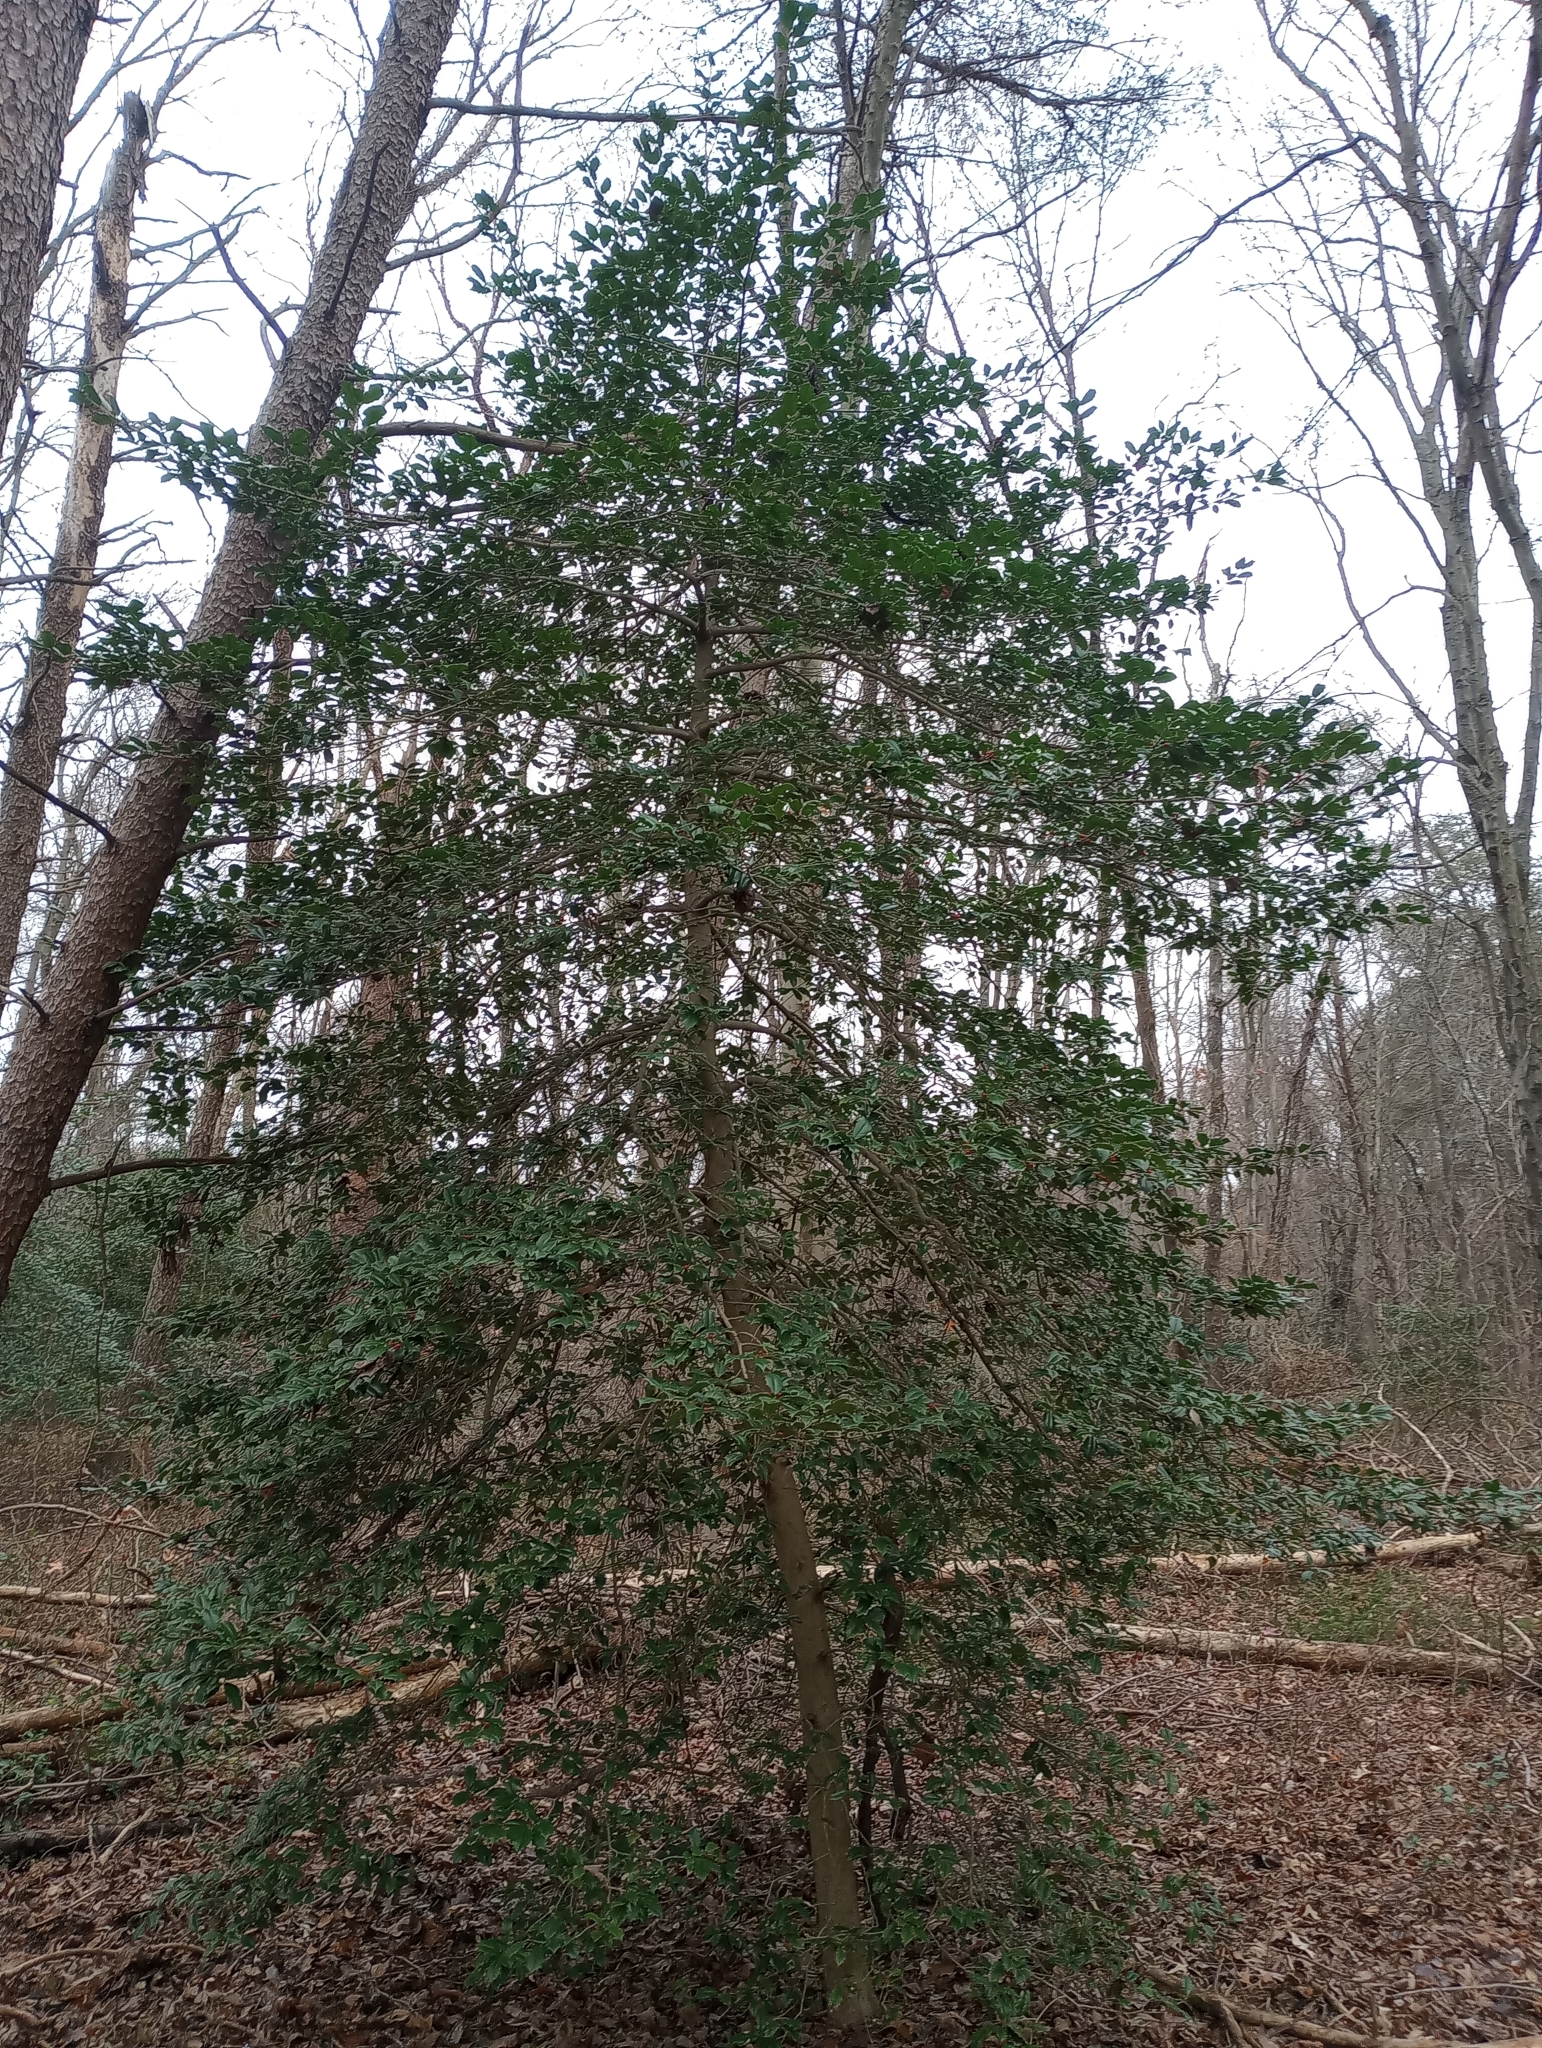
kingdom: Plantae
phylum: Tracheophyta
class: Magnoliopsida
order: Aquifoliales
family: Aquifoliaceae
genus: Ilex
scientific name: Ilex opaca
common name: American holly
